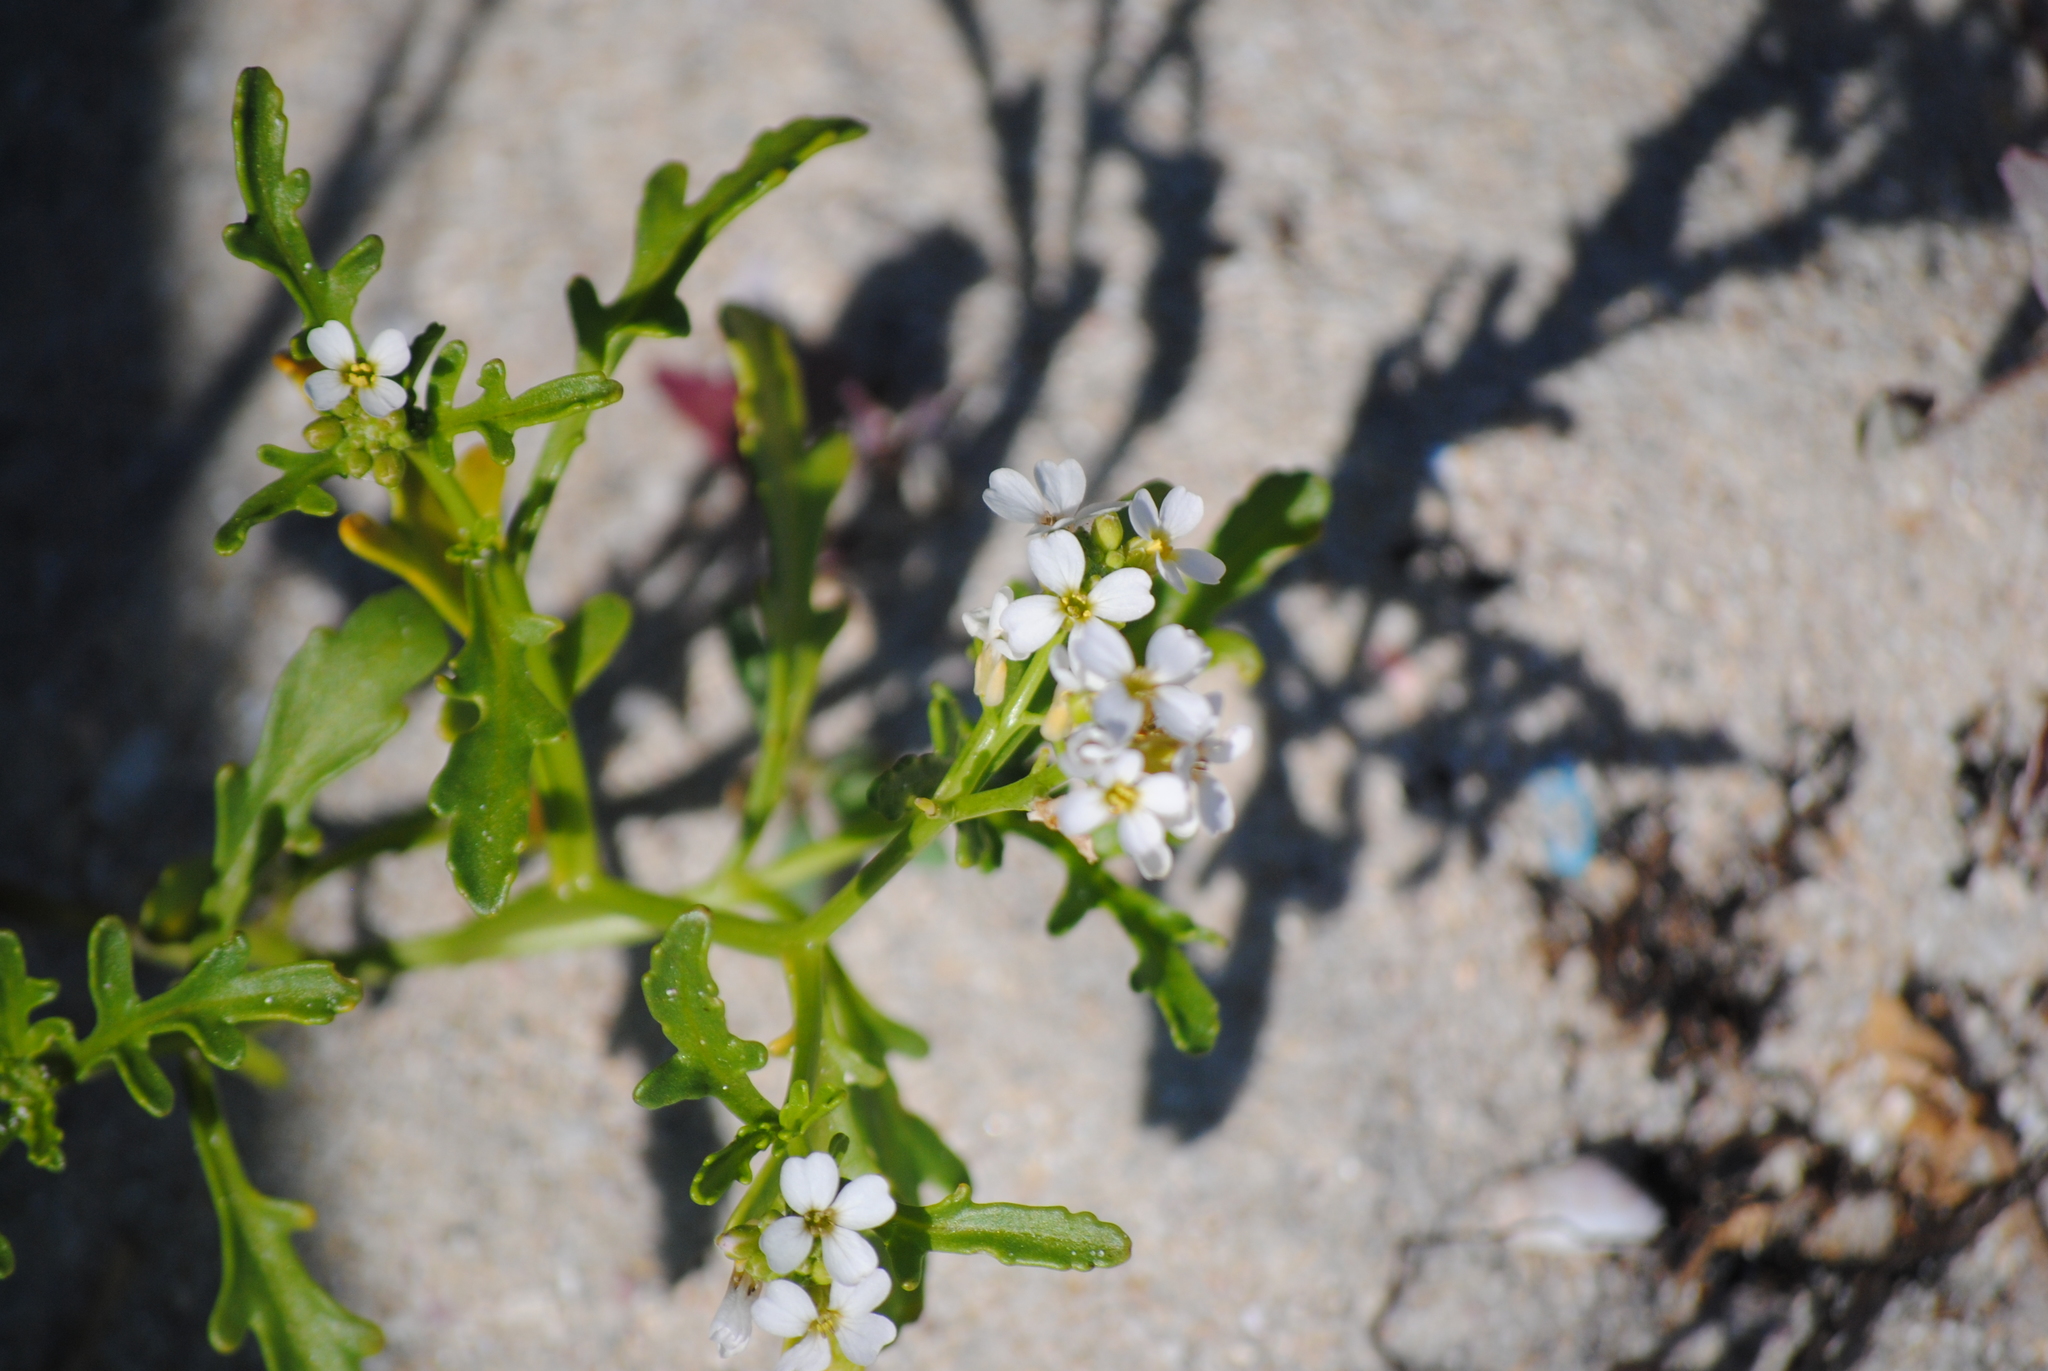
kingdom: Plantae
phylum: Tracheophyta
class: Magnoliopsida
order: Brassicales
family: Brassicaceae
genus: Cakile
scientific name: Cakile maritima
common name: Sea rocket
